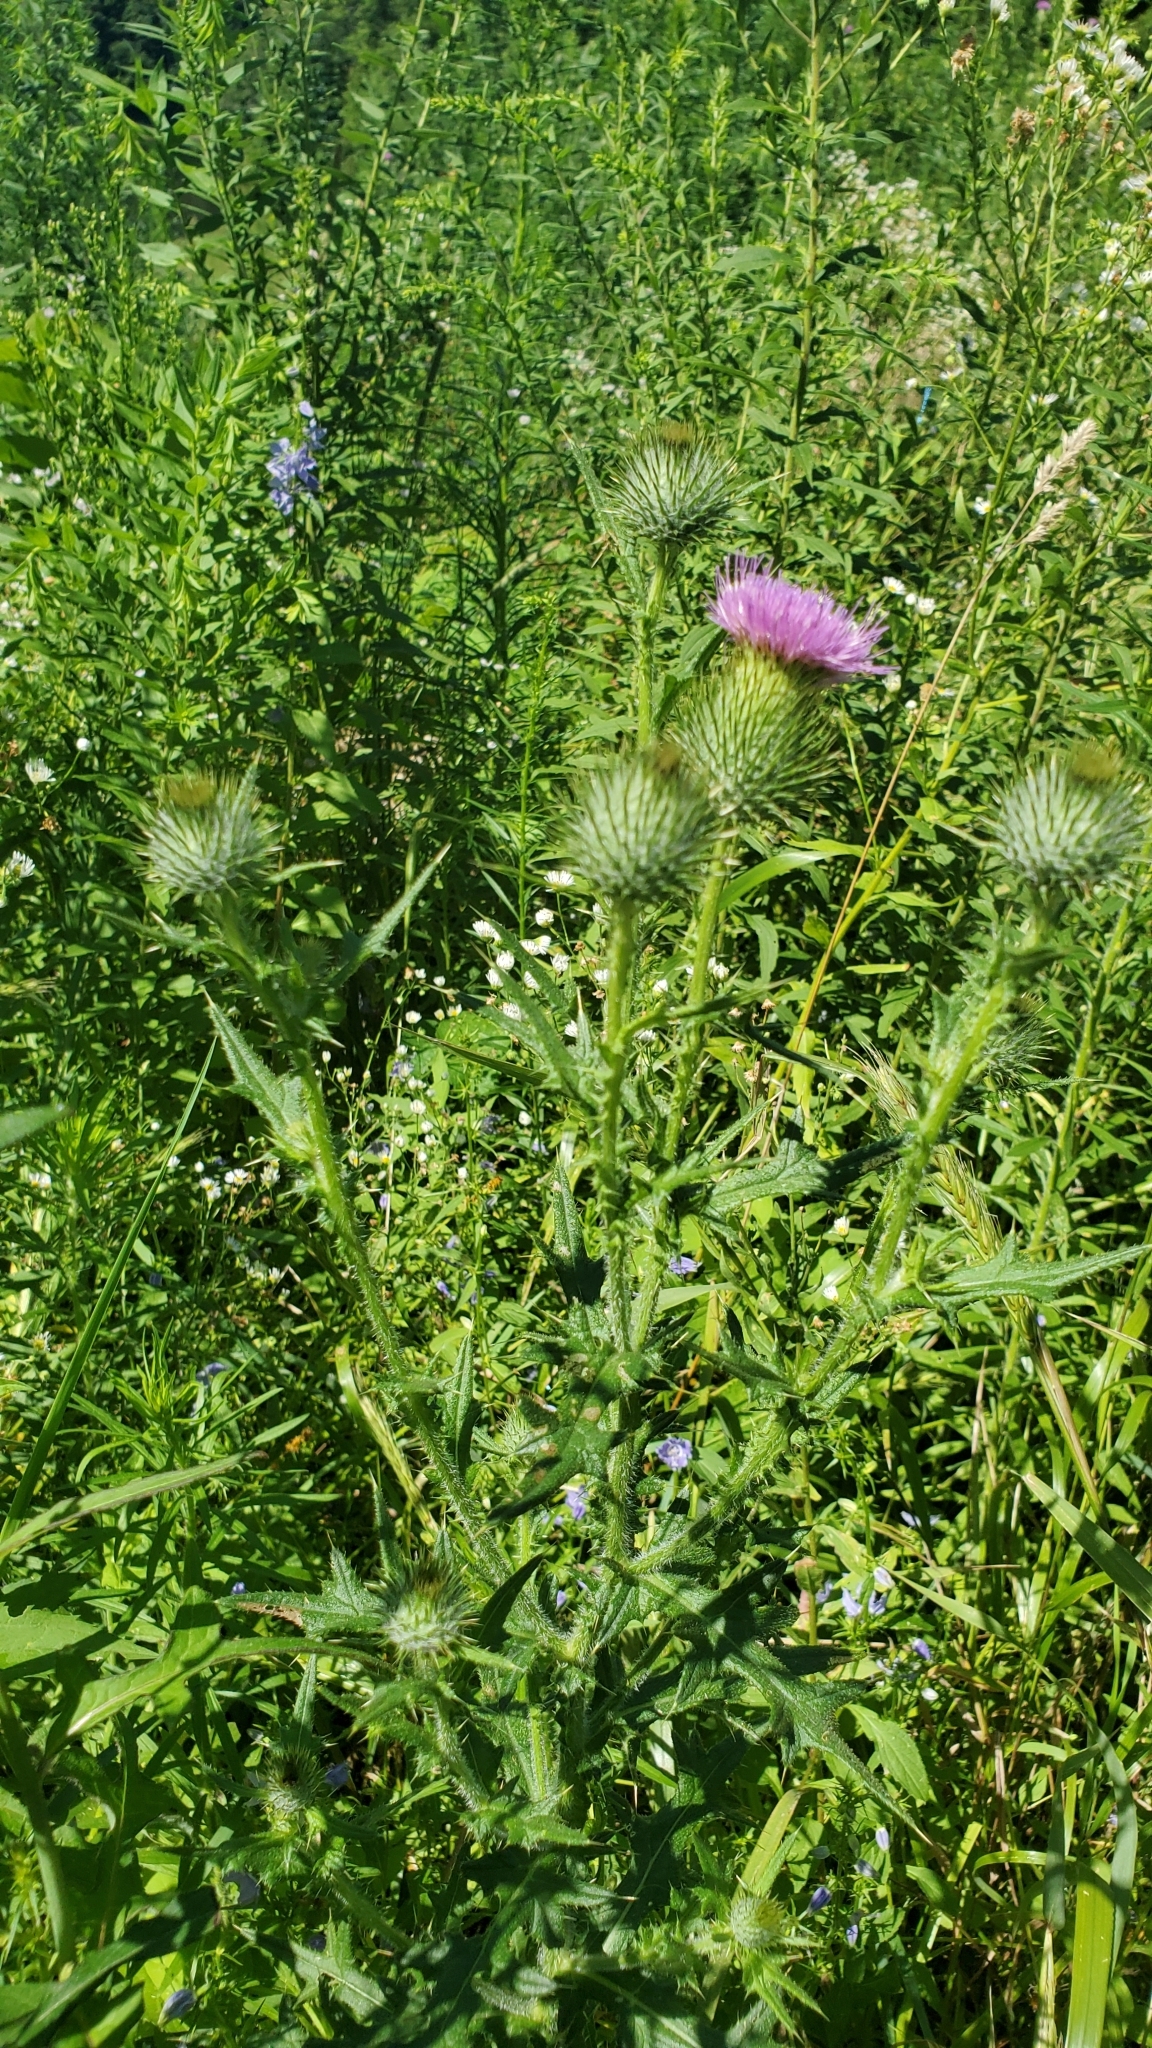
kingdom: Plantae
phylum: Tracheophyta
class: Magnoliopsida
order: Asterales
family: Asteraceae
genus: Cirsium
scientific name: Cirsium vulgare
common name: Bull thistle
